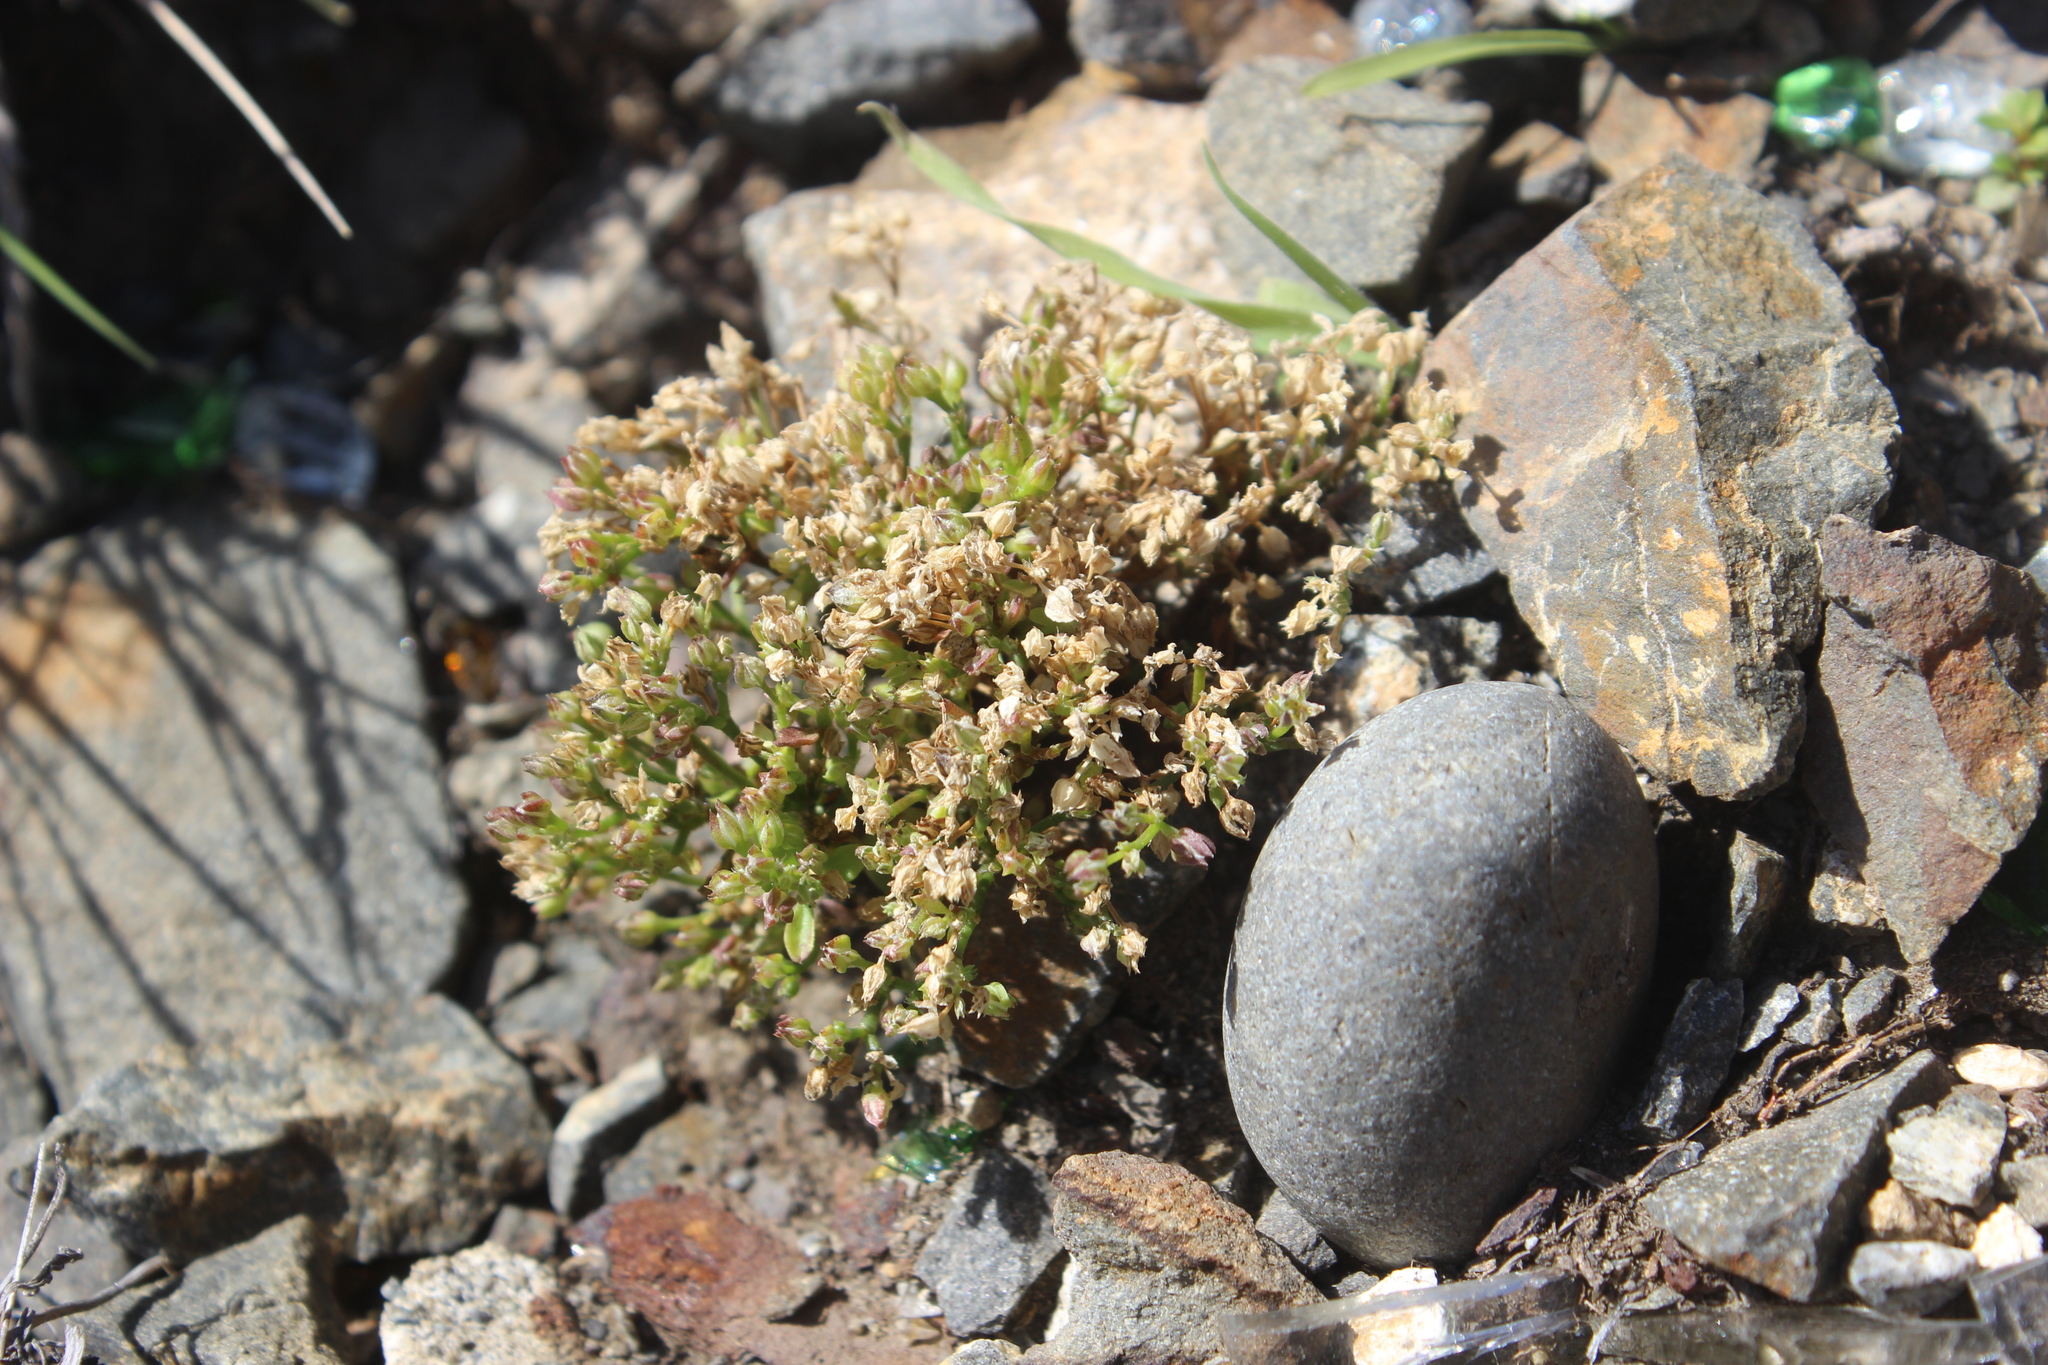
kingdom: Plantae
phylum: Tracheophyta
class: Magnoliopsida
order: Caryophyllales
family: Caryophyllaceae
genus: Polycarpon
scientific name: Polycarpon tetraphyllum
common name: Four-leaved all-seed
